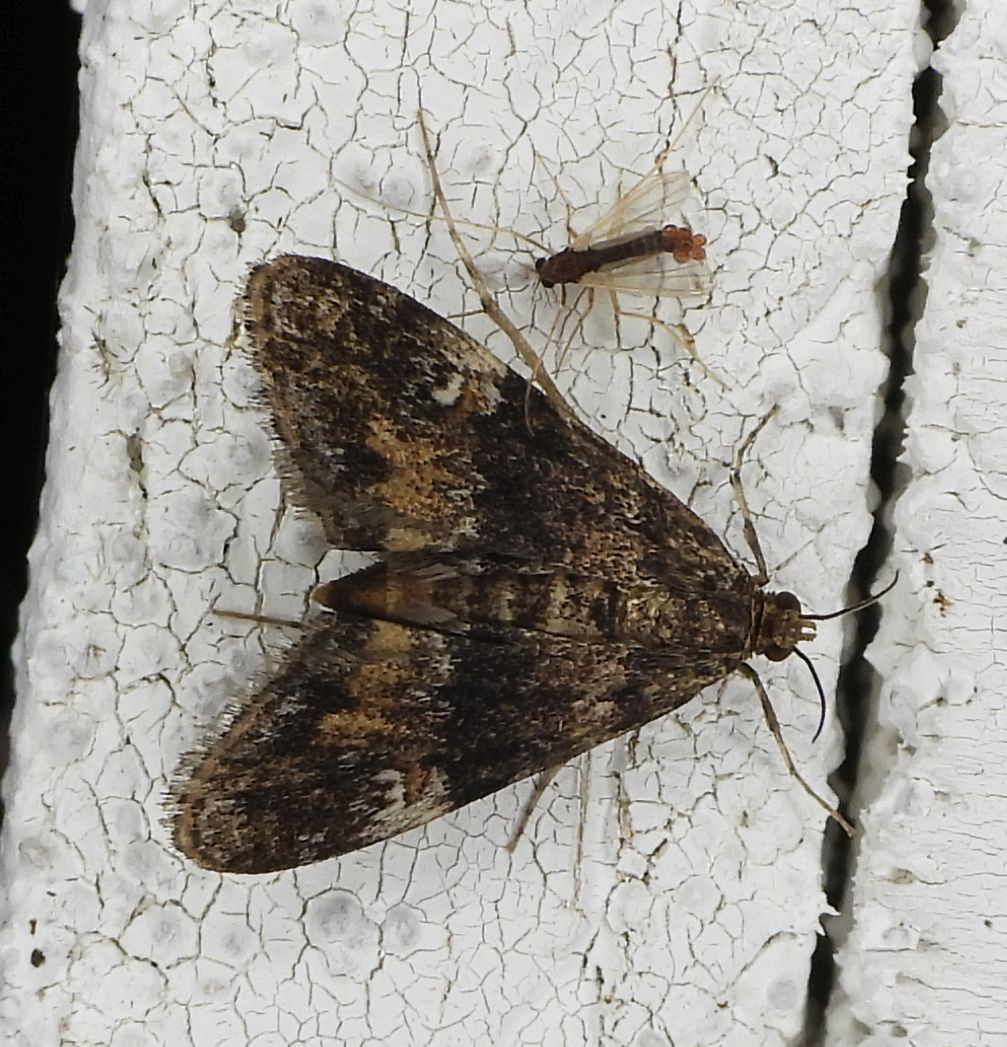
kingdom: Animalia
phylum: Arthropoda
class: Insecta
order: Lepidoptera
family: Crambidae
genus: Elophila
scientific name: Elophila obliteralis
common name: Waterlily leafcutter moth
